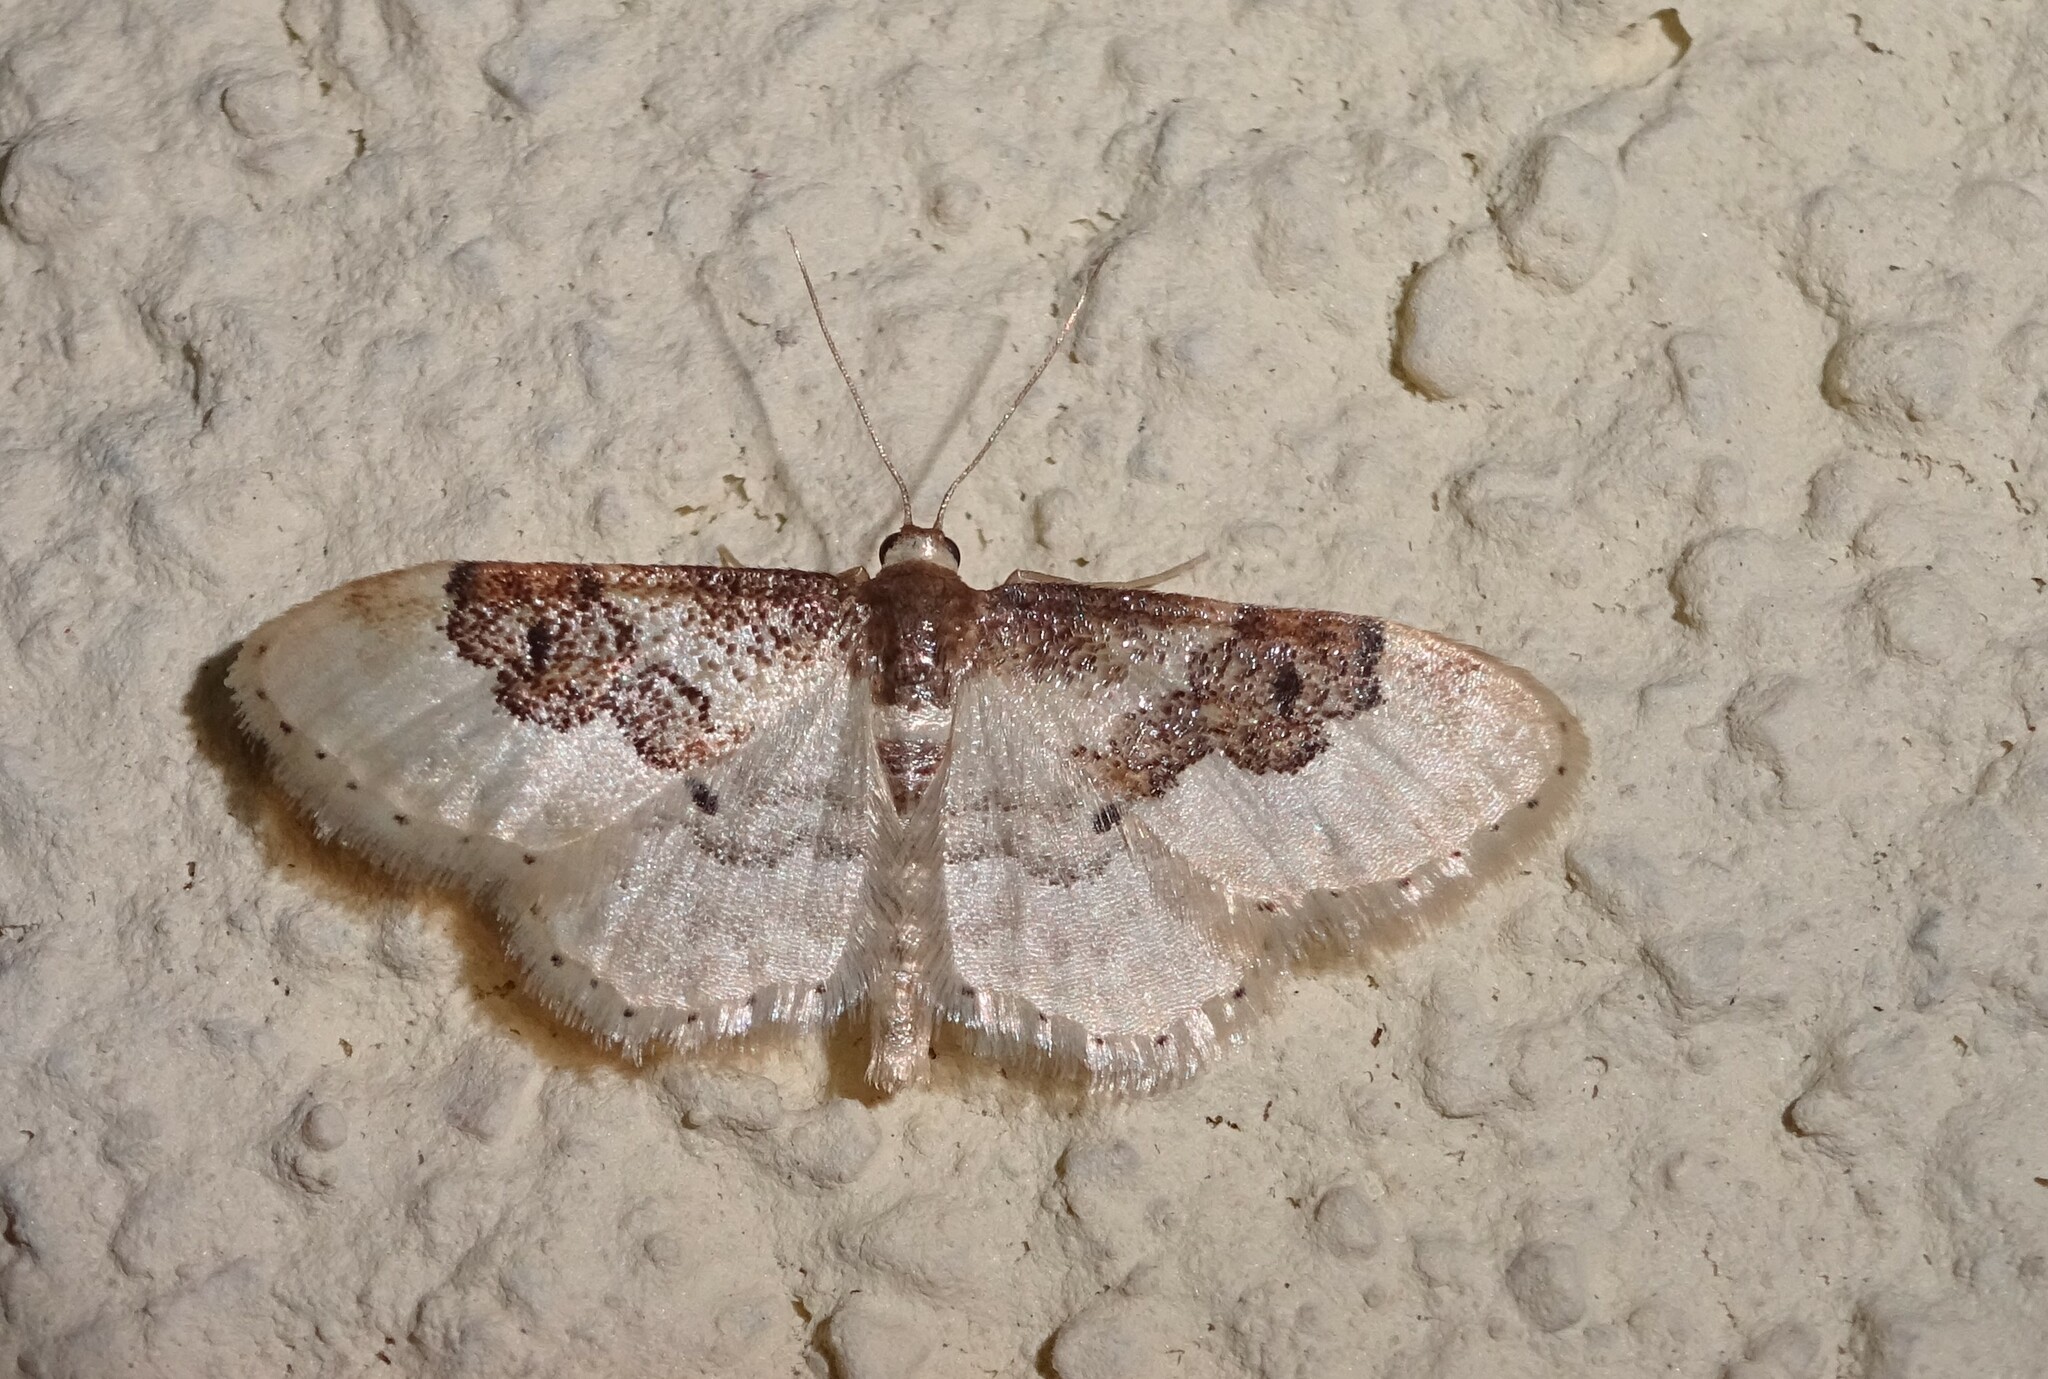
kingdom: Animalia
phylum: Arthropoda
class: Insecta
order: Lepidoptera
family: Geometridae
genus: Idaea
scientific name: Idaea rusticata
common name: Least carpet
